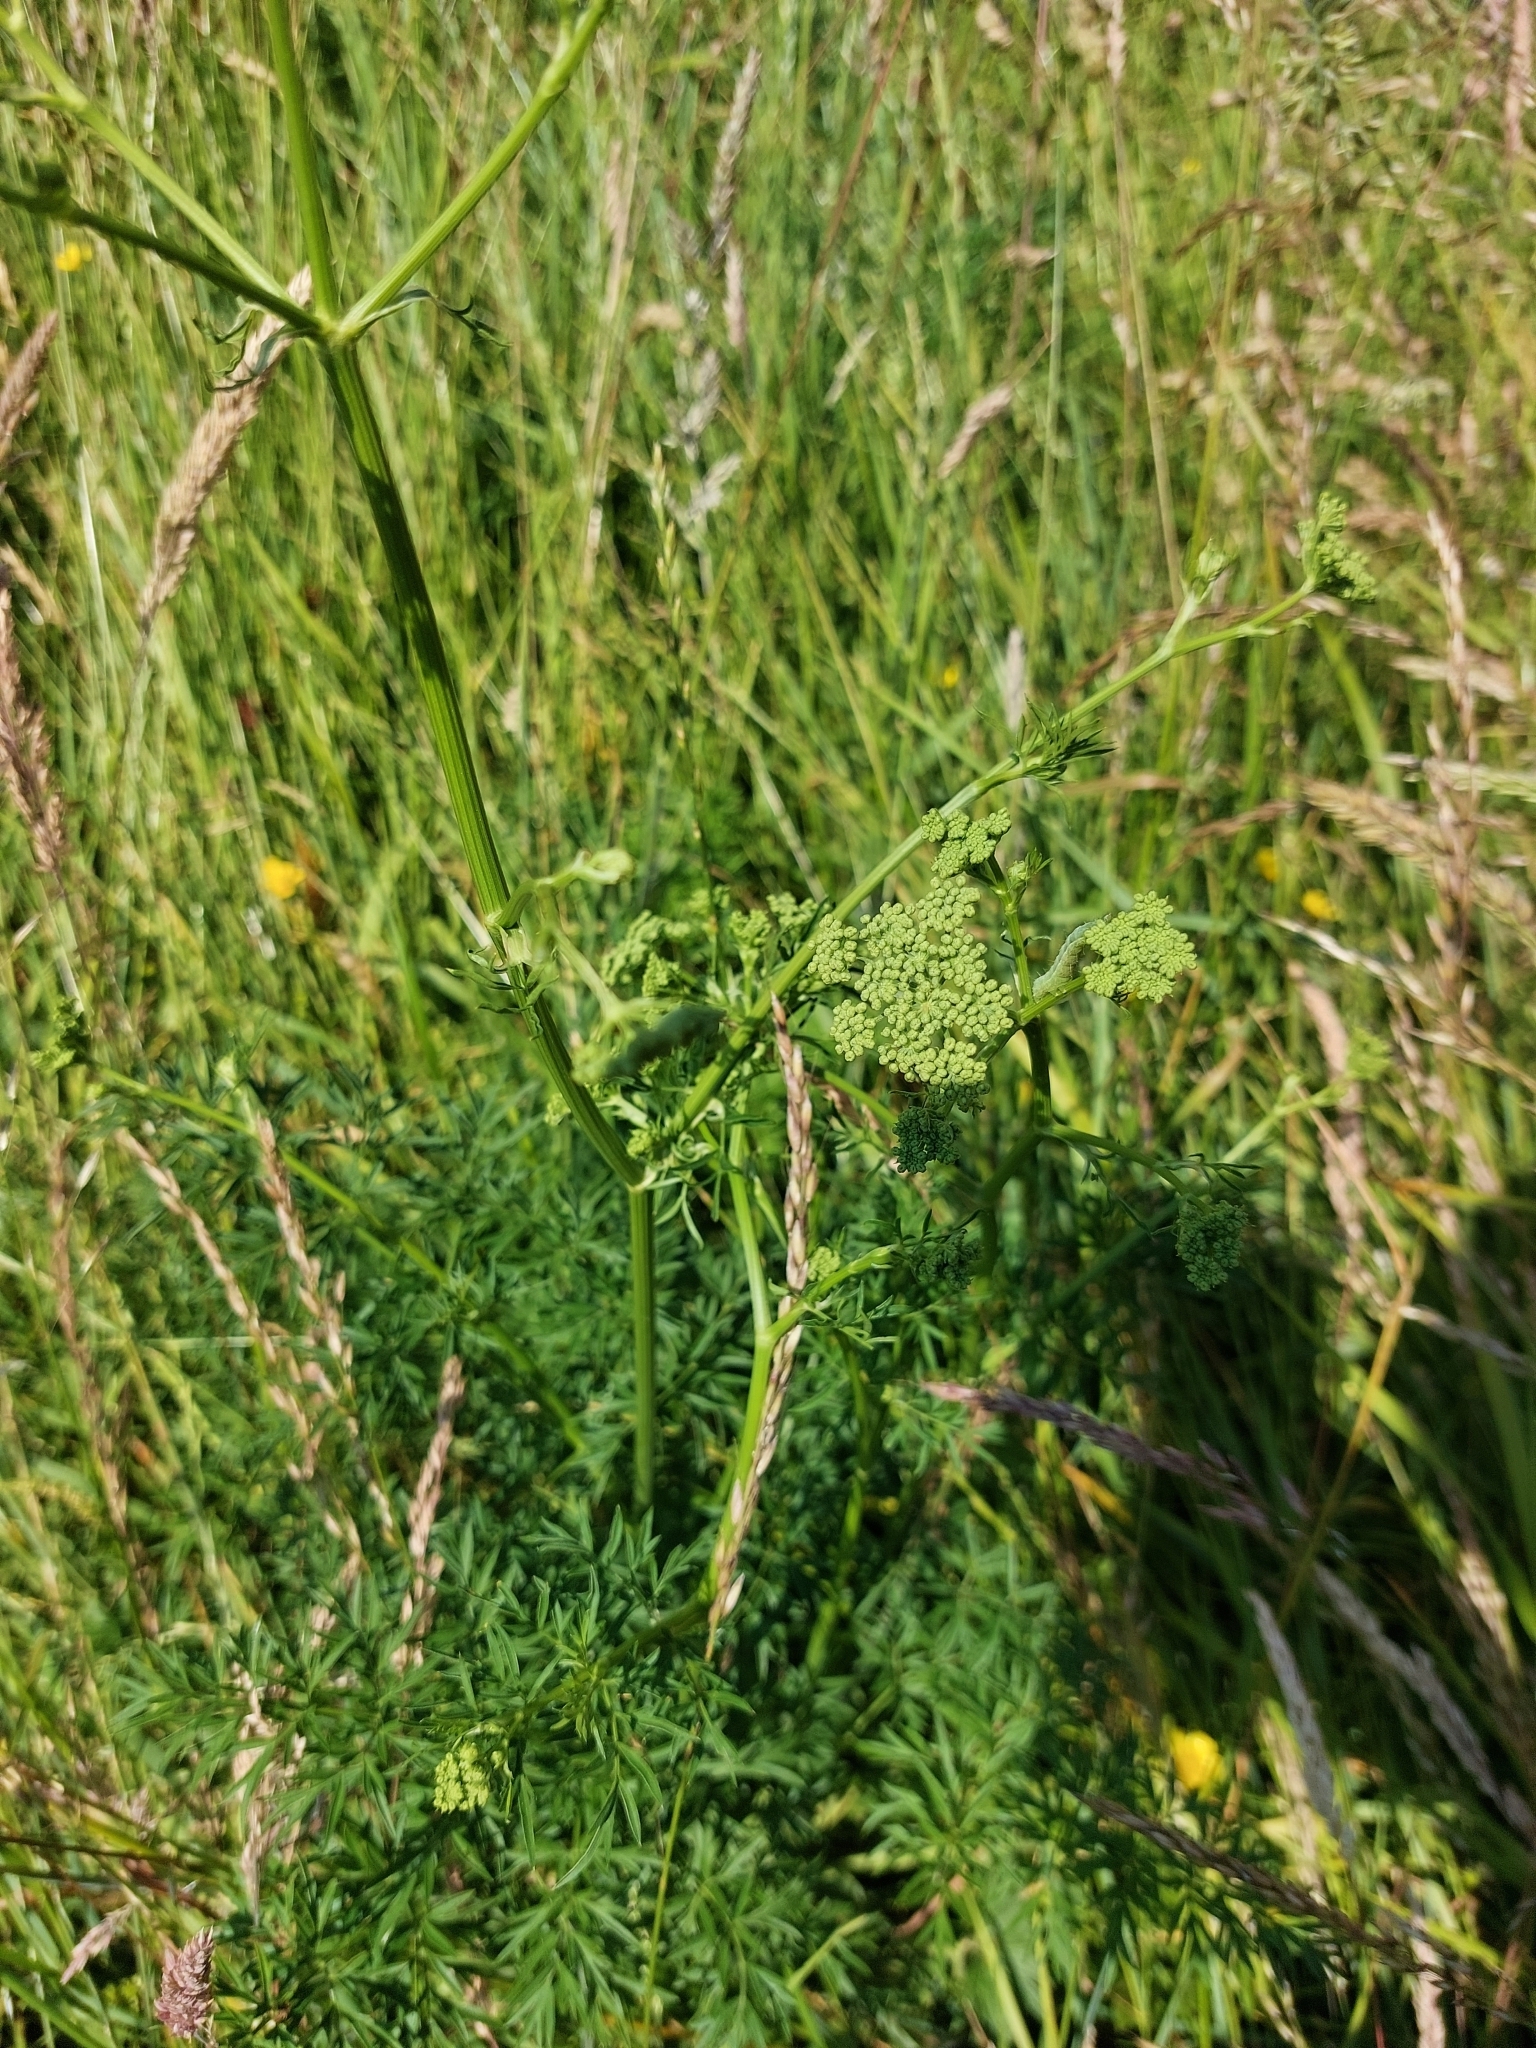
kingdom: Plantae
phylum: Tracheophyta
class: Magnoliopsida
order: Apiales
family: Apiaceae
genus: Silaum
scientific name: Silaum silaus
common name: Pepper-saxifrage
